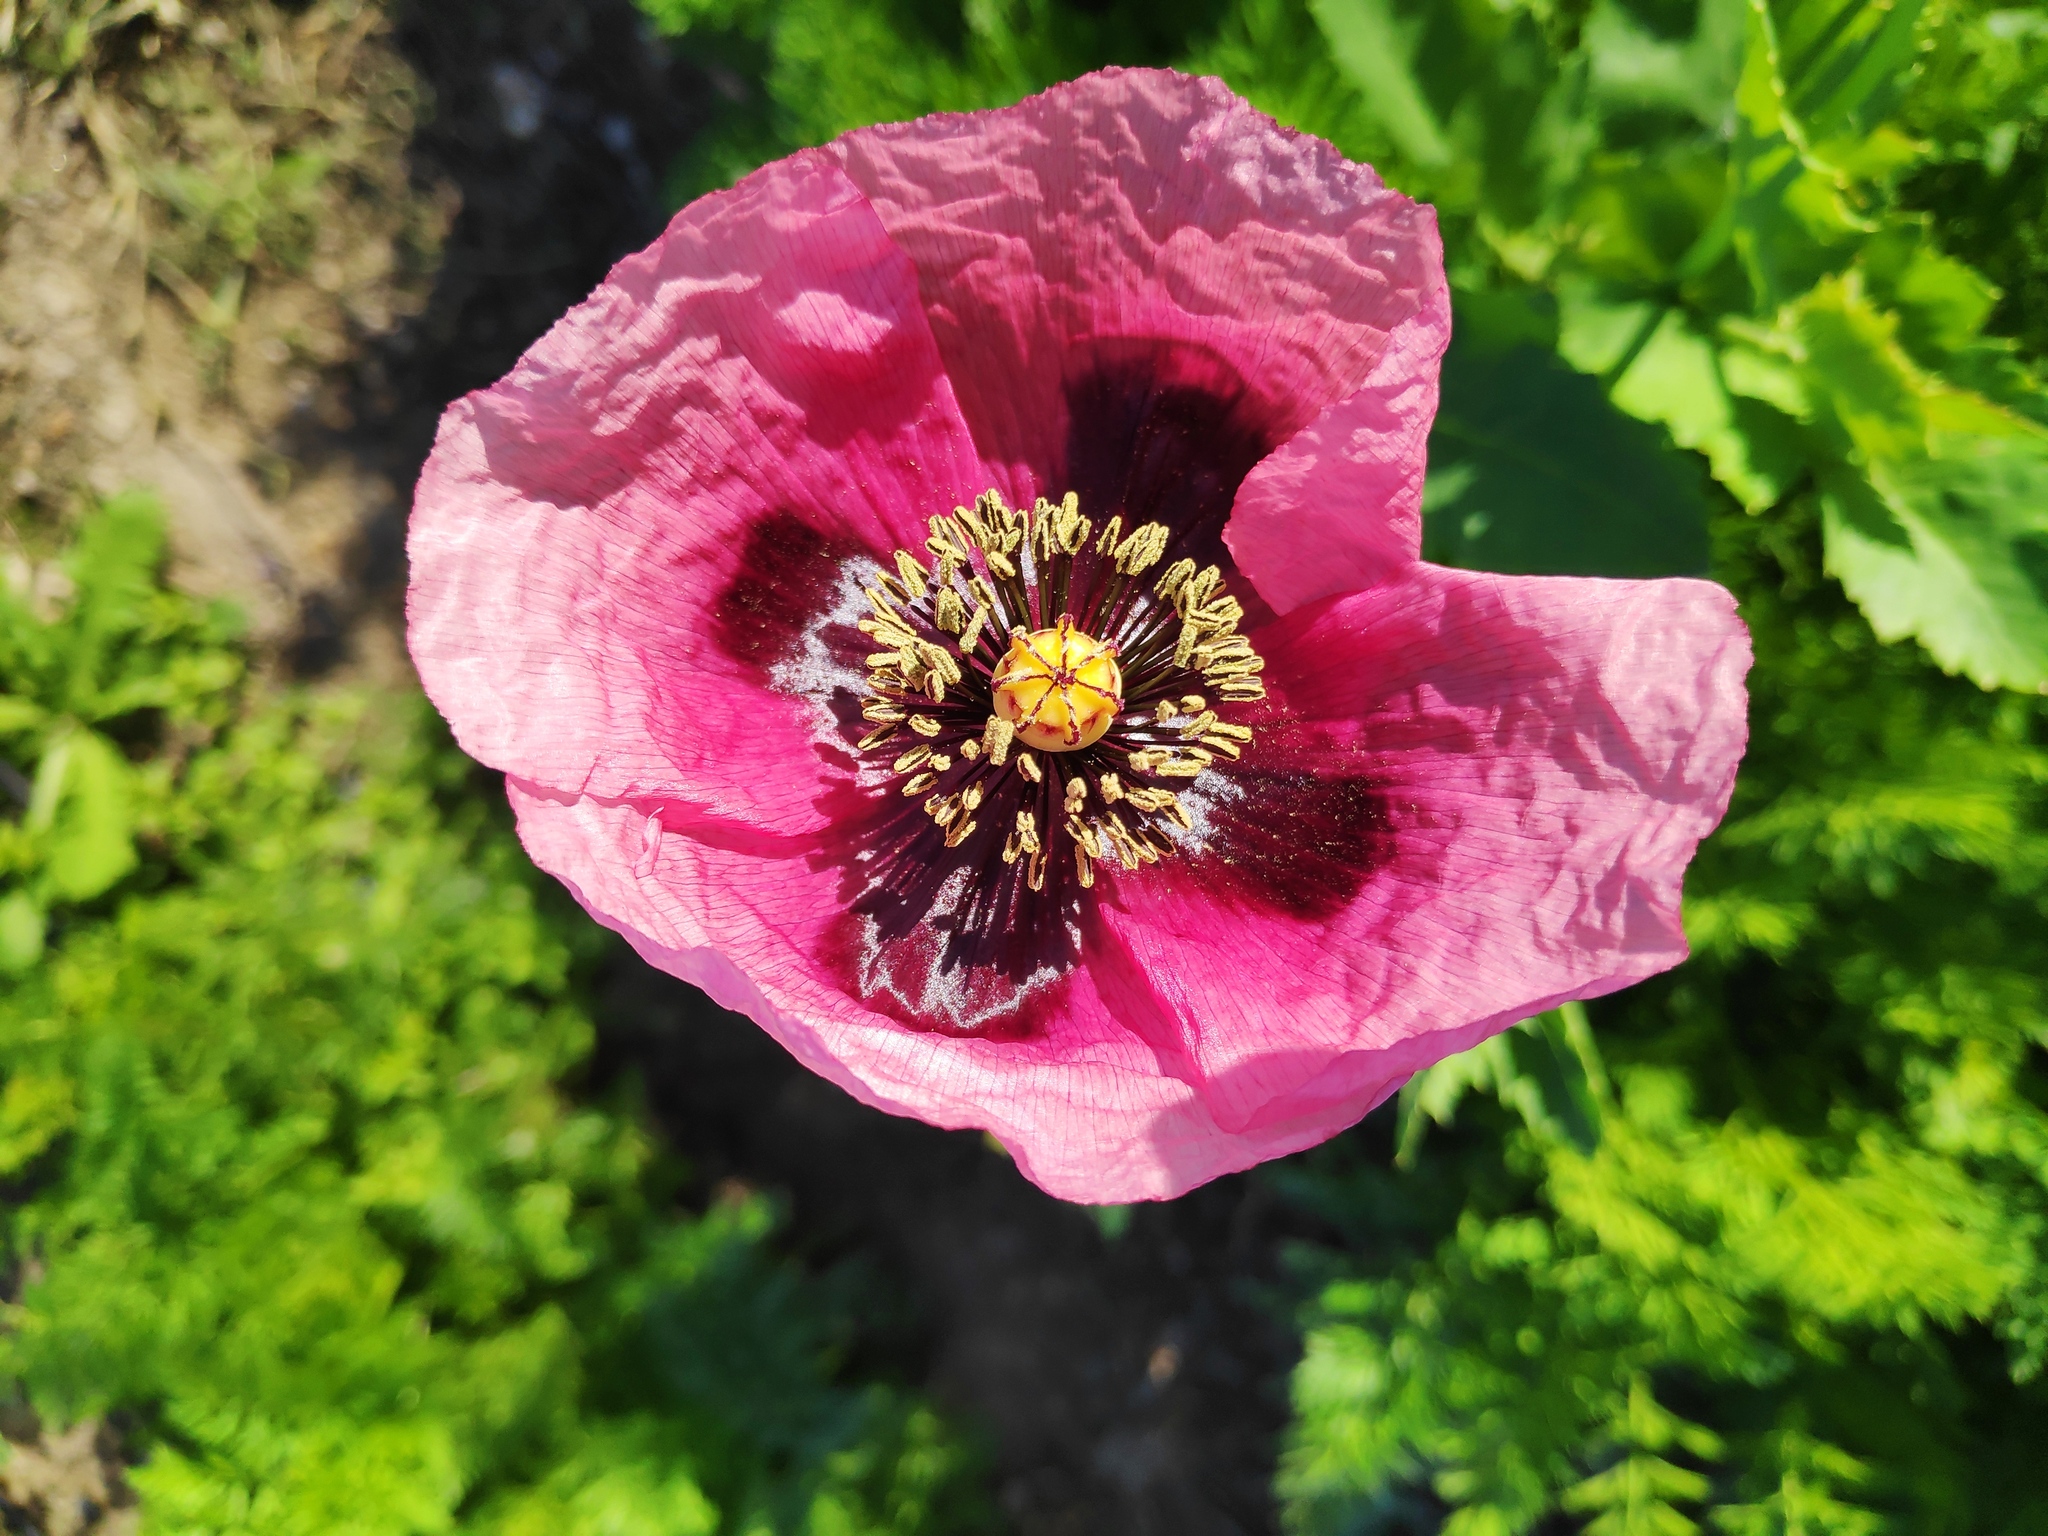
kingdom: Plantae
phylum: Tracheophyta
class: Magnoliopsida
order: Ranunculales
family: Papaveraceae
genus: Papaver
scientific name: Papaver somniferum
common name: Opium poppy
